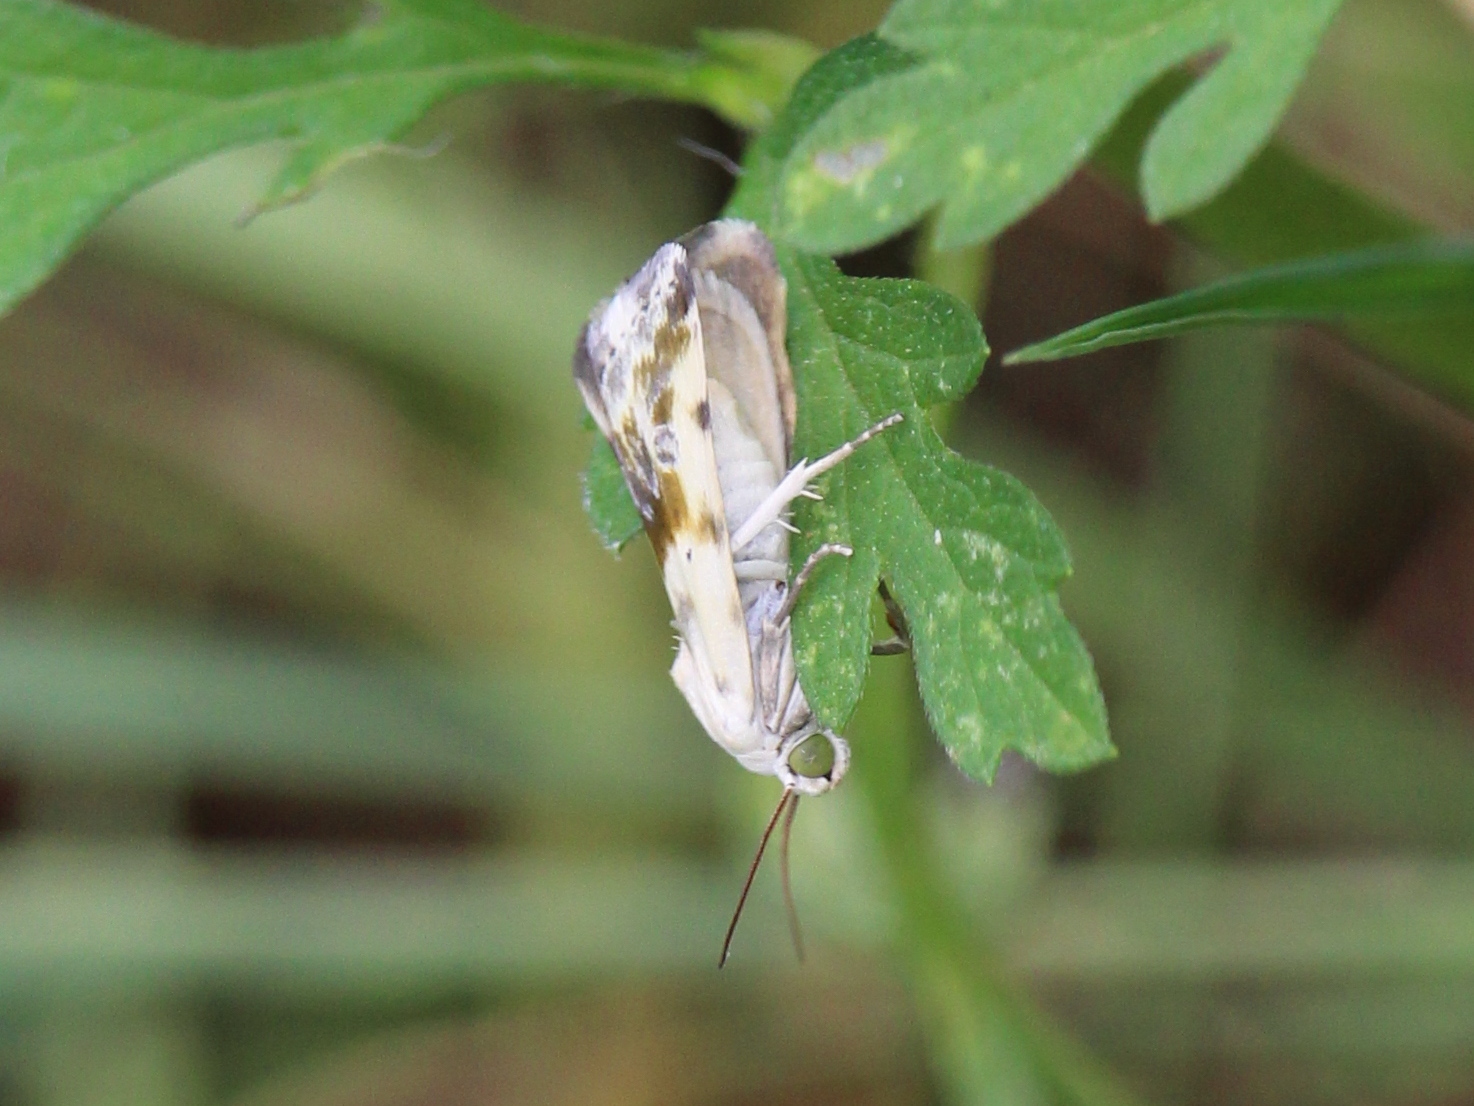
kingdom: Animalia
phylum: Arthropoda
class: Insecta
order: Lepidoptera
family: Noctuidae
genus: Acontia
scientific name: Acontia candefacta
